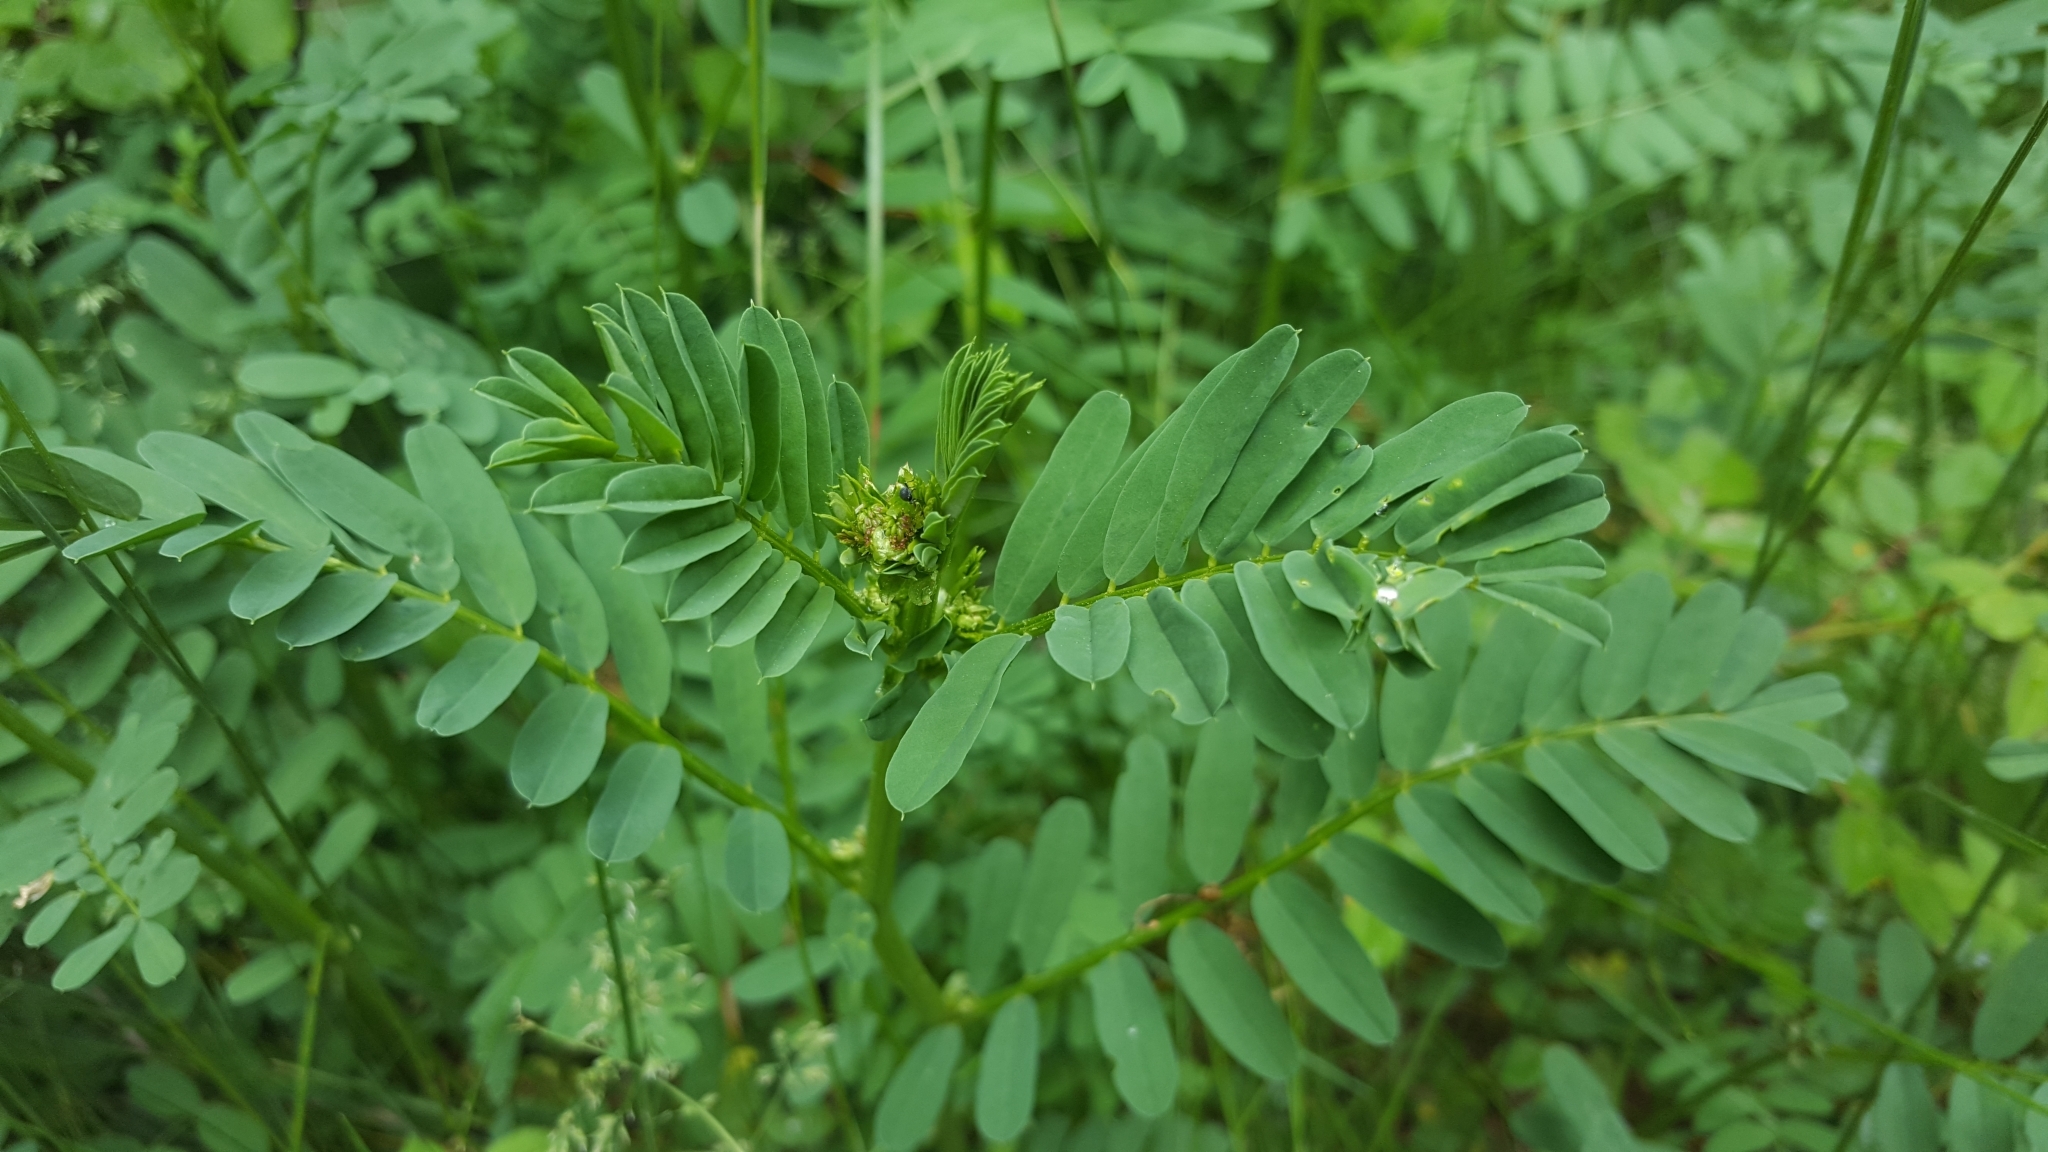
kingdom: Plantae
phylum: Tracheophyta
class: Magnoliopsida
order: Fabales
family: Fabaceae
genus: Coronilla
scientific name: Coronilla varia
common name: Crownvetch
